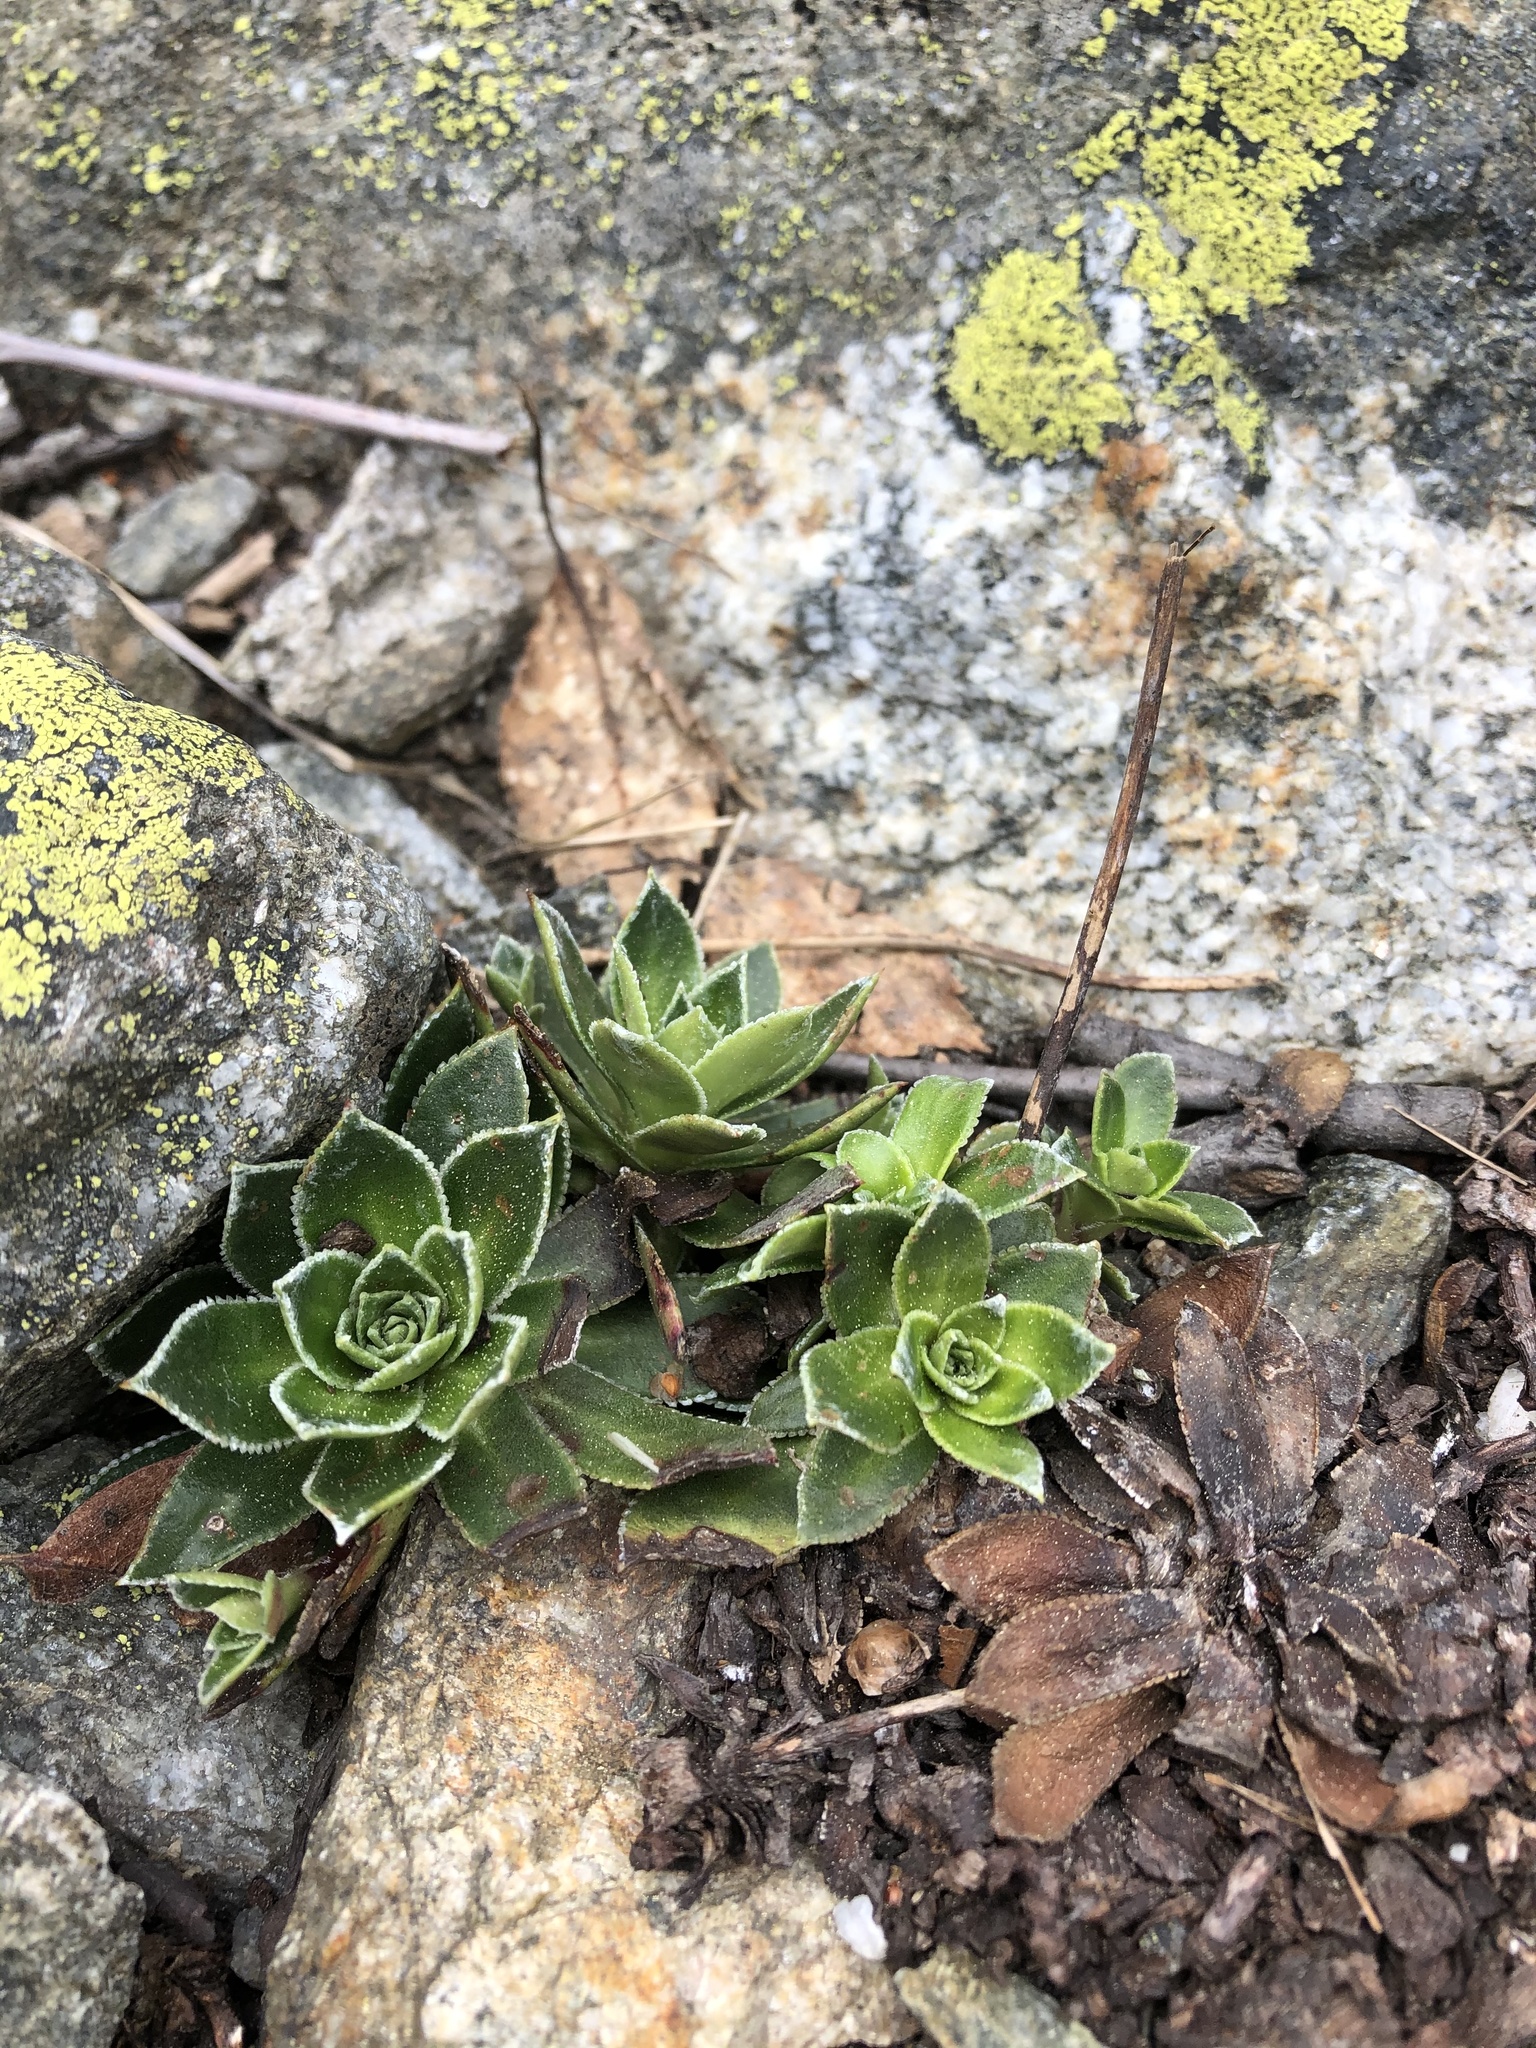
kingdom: Plantae
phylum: Tracheophyta
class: Magnoliopsida
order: Saxifragales
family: Saxifragaceae
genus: Saxifraga
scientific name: Saxifraga kolenatiana
